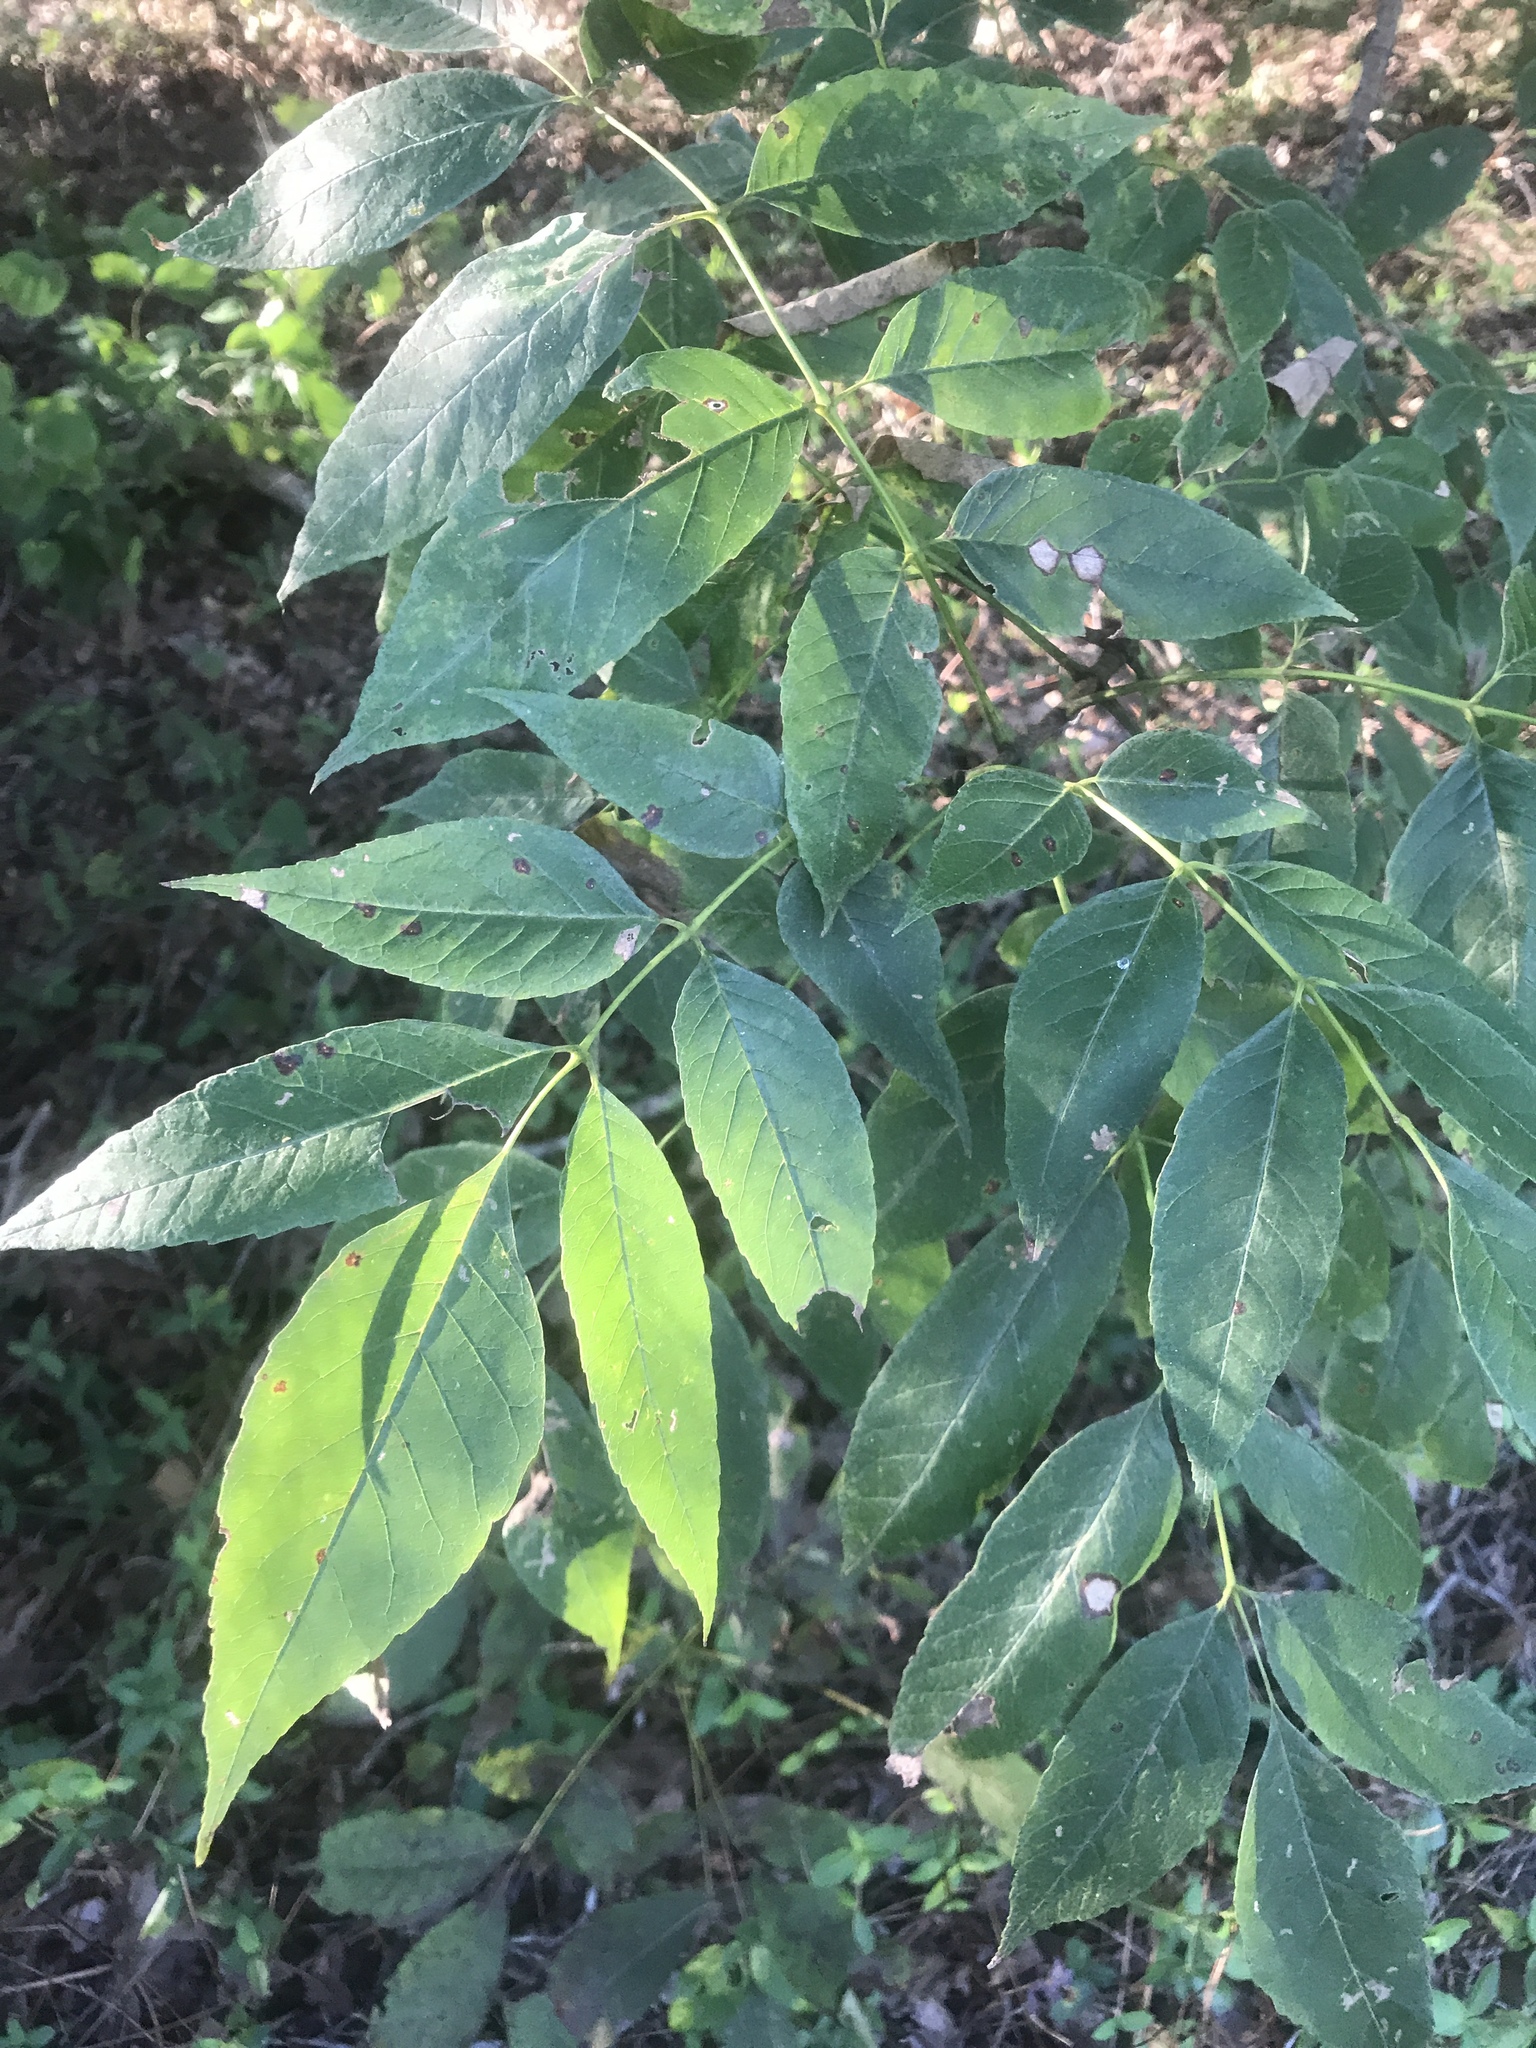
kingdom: Plantae
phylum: Tracheophyta
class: Magnoliopsida
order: Lamiales
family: Oleaceae
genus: Fraxinus
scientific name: Fraxinus americana
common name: White ash
